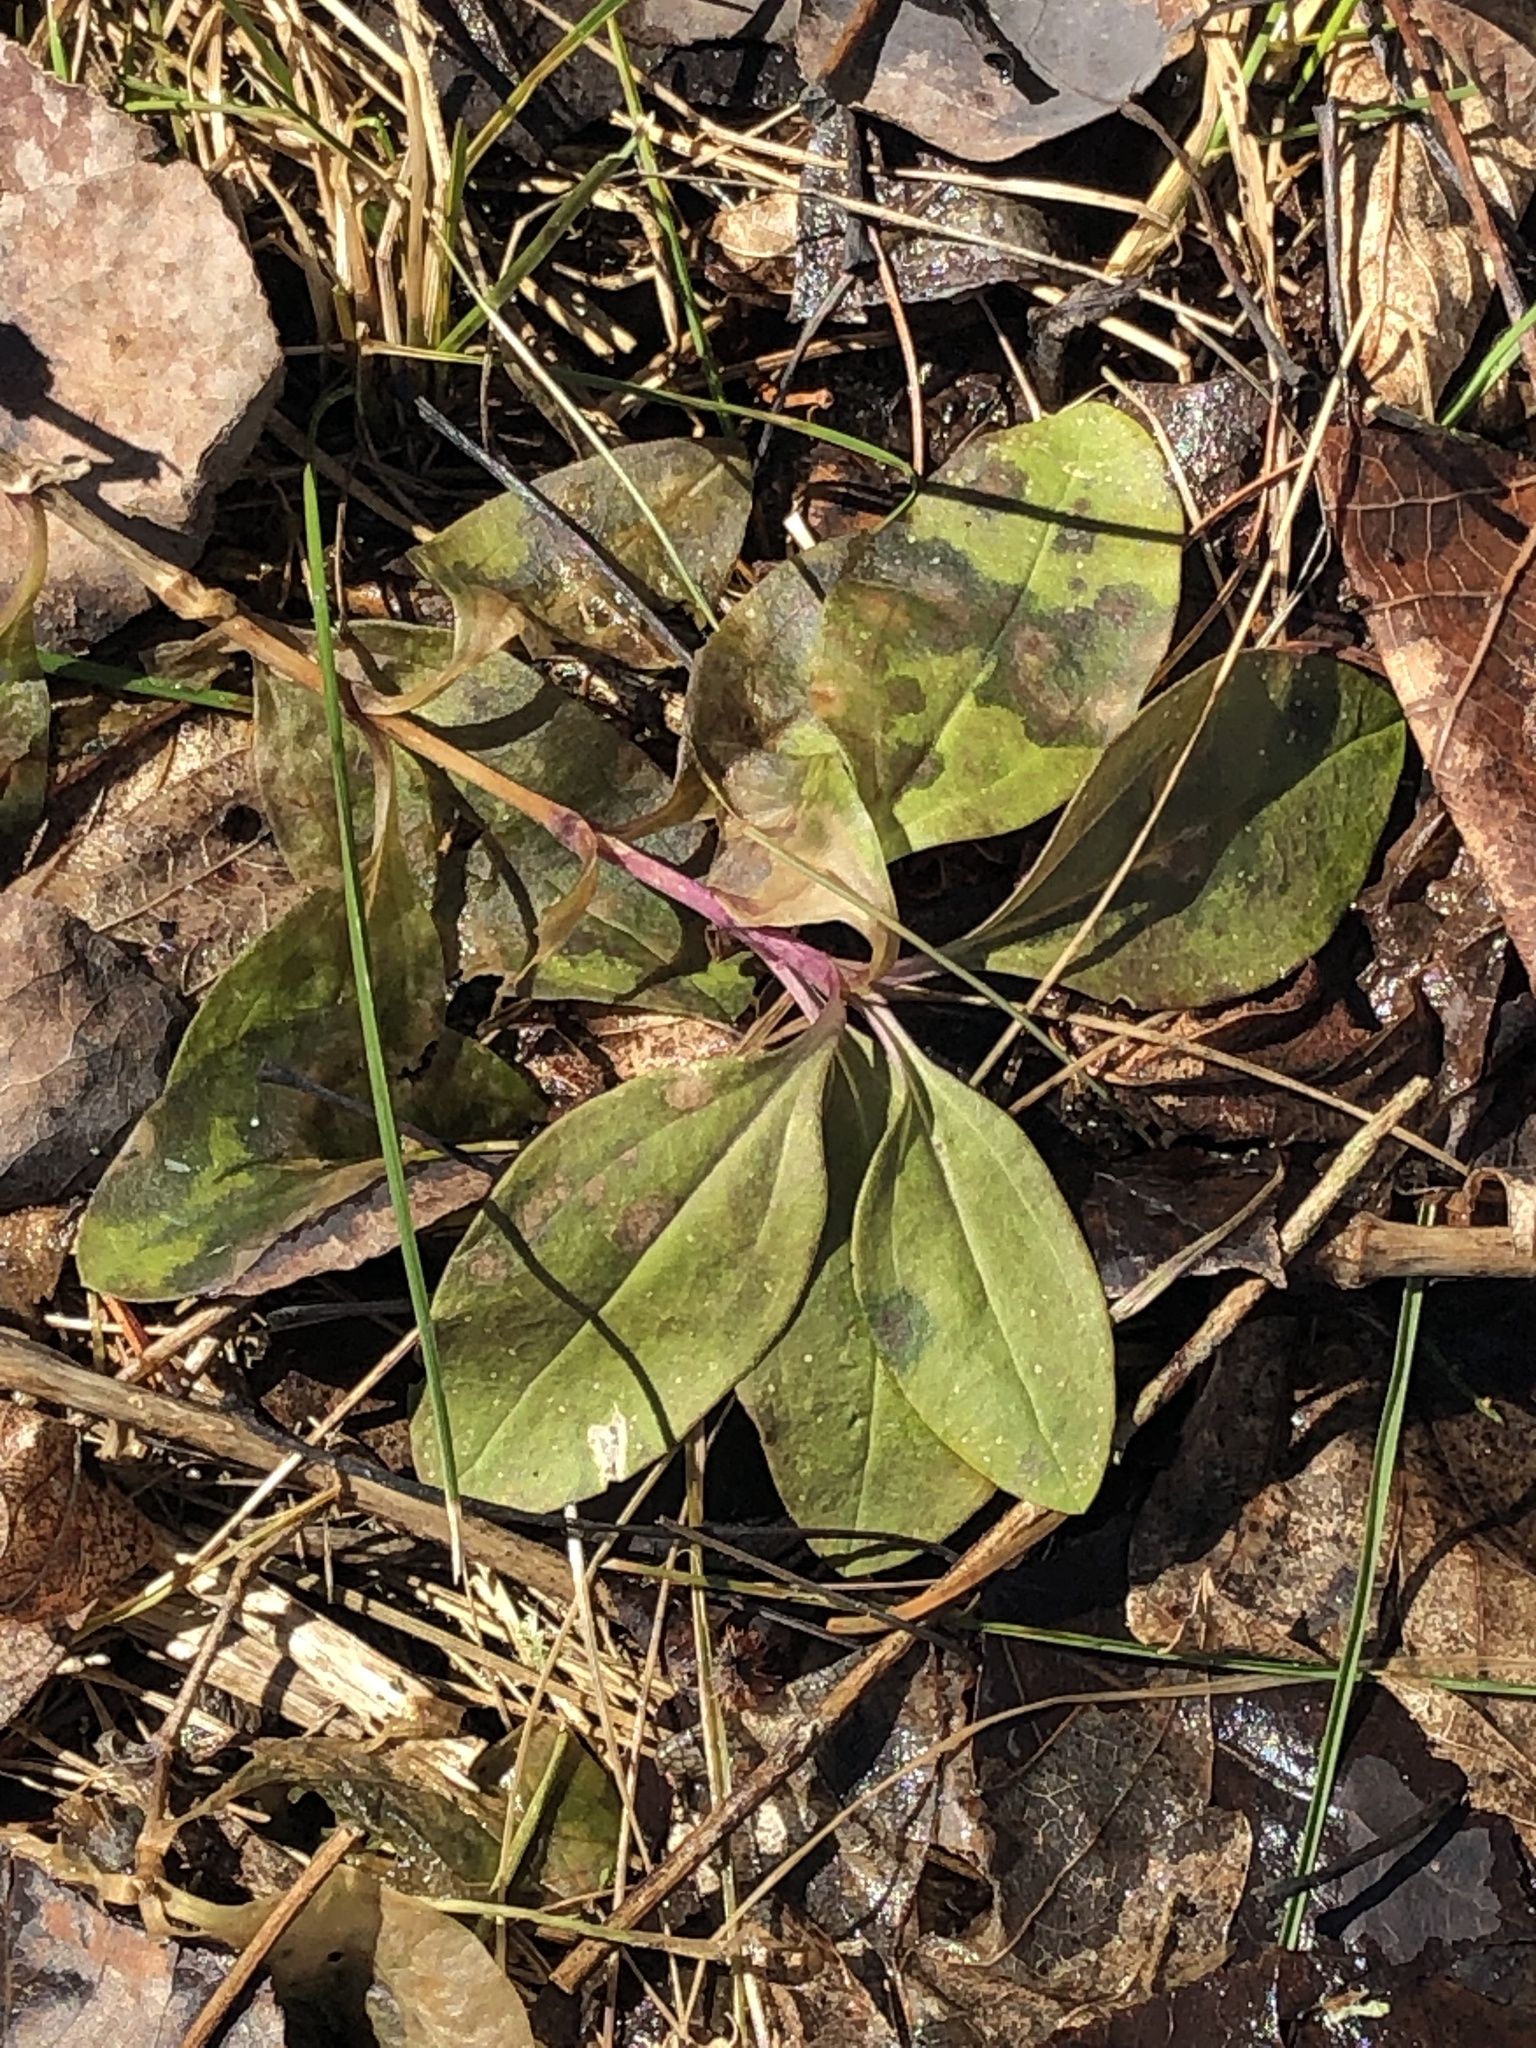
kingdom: Plantae
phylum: Tracheophyta
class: Magnoliopsida
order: Caryophyllales
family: Caryophyllaceae
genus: Saponaria
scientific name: Saponaria officinalis
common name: Soapwort
